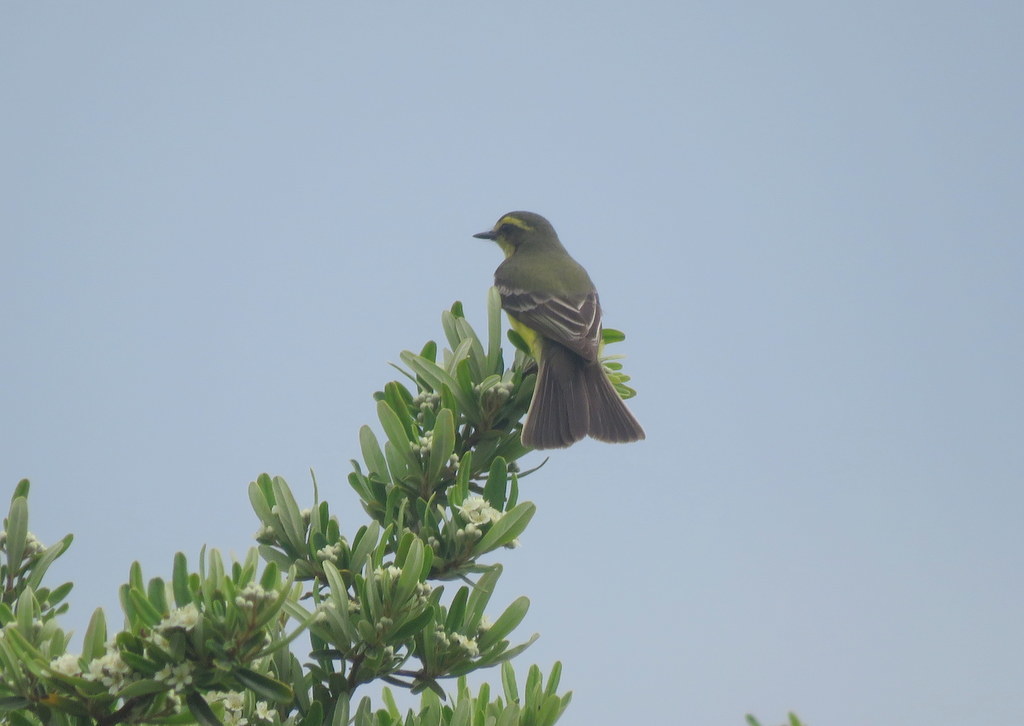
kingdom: Animalia
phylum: Chordata
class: Aves
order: Passeriformes
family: Tyrannidae
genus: Satrapa
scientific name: Satrapa icterophrys
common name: Yellow-browed tyrant
